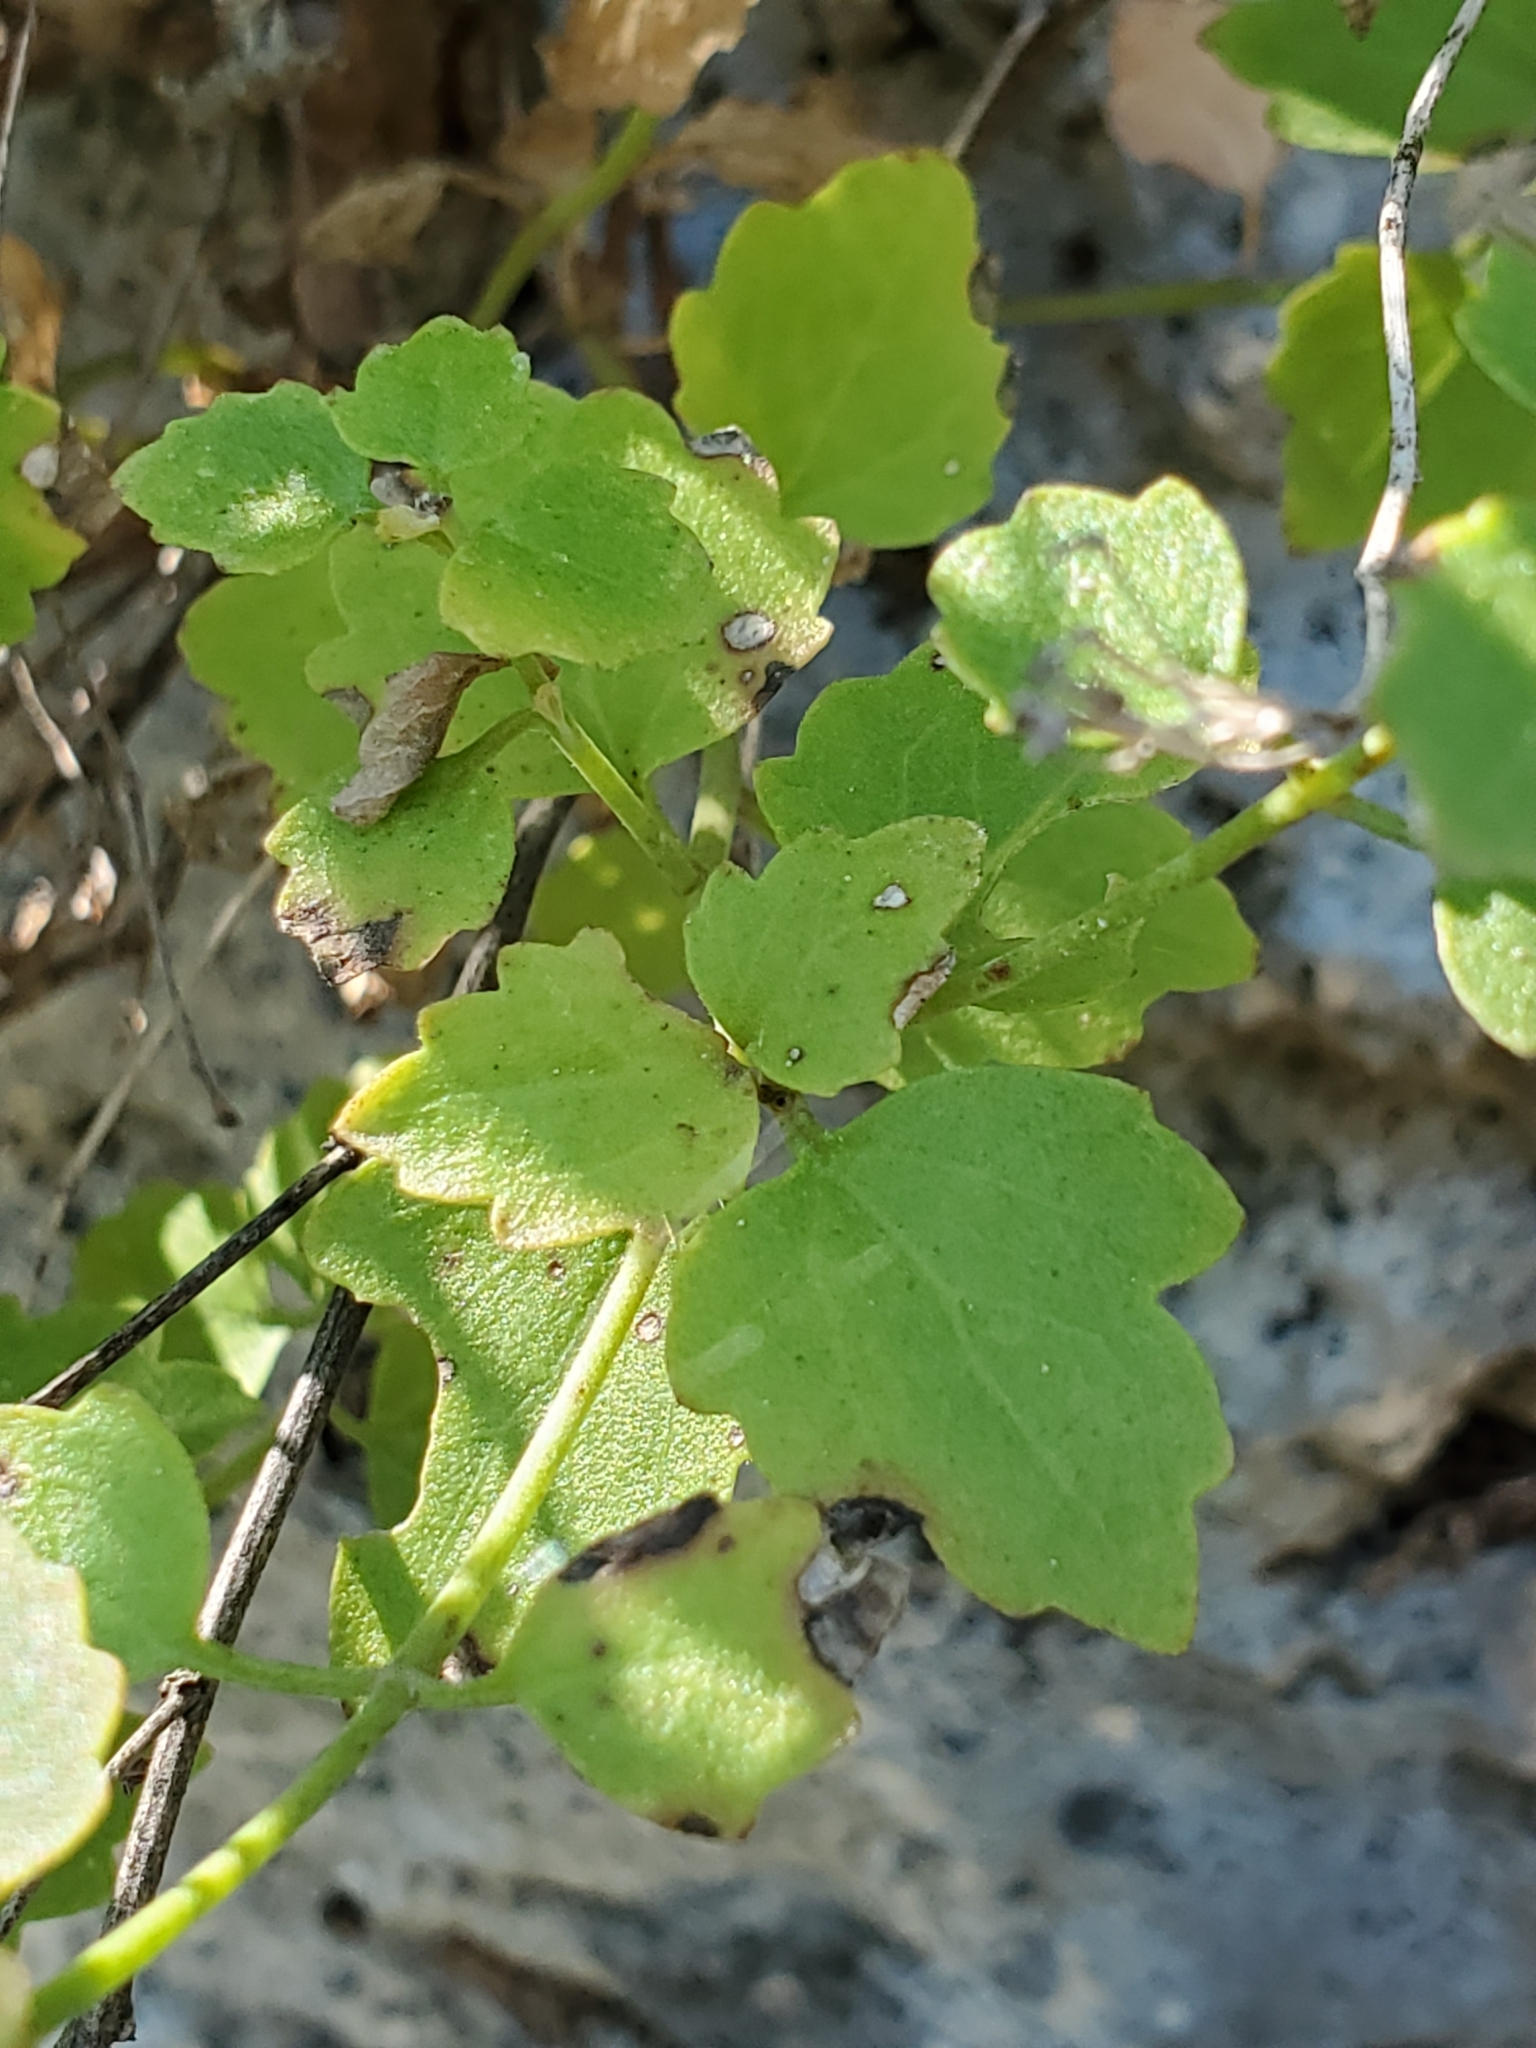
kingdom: Plantae
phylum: Tracheophyta
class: Magnoliopsida
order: Asterales
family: Asteraceae
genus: Laphamia
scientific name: Laphamia lindheimeri
